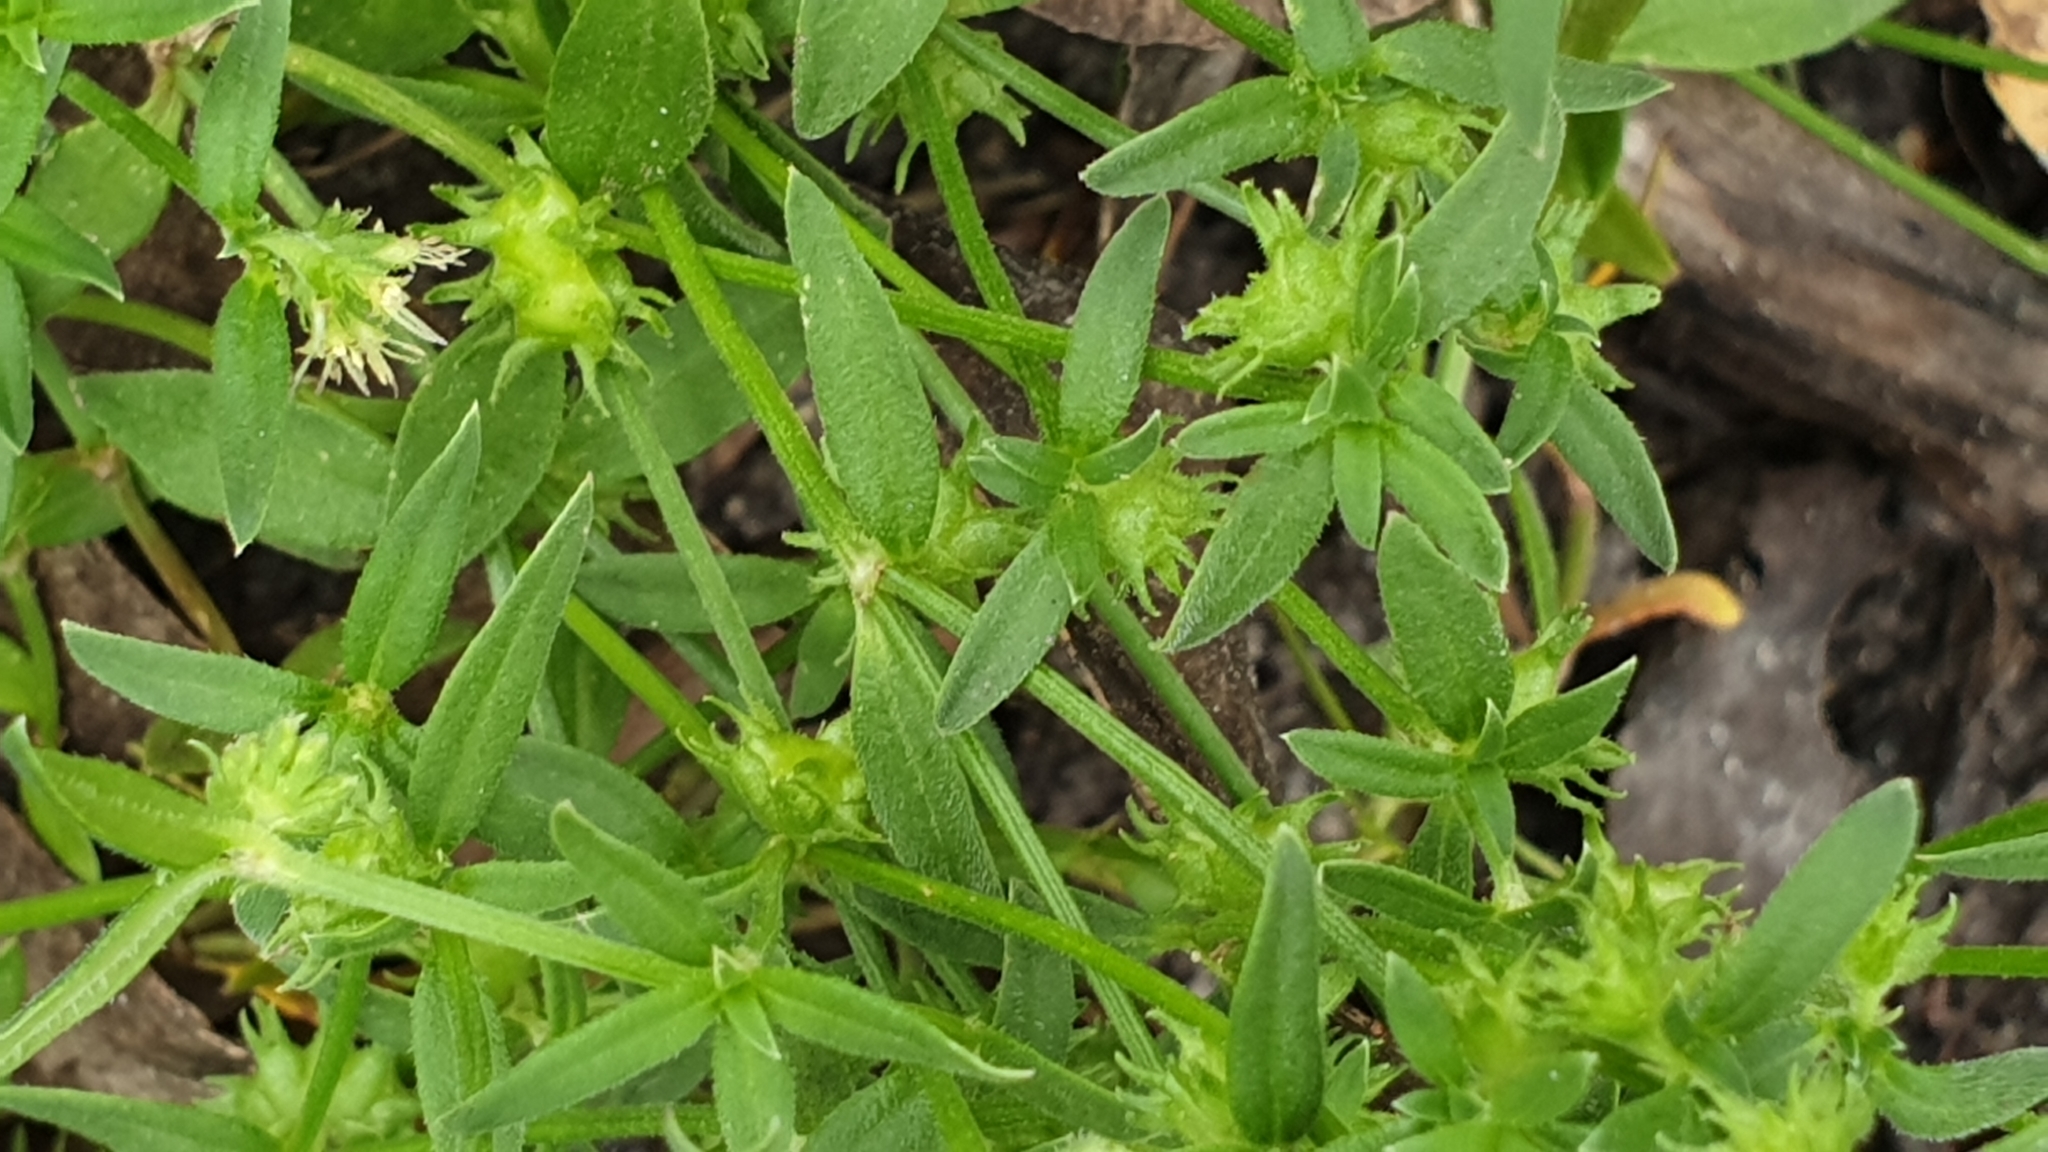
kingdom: Plantae
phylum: Tracheophyta
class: Magnoliopsida
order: Gentianales
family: Rubiaceae
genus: Opercularia
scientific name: Opercularia varia
